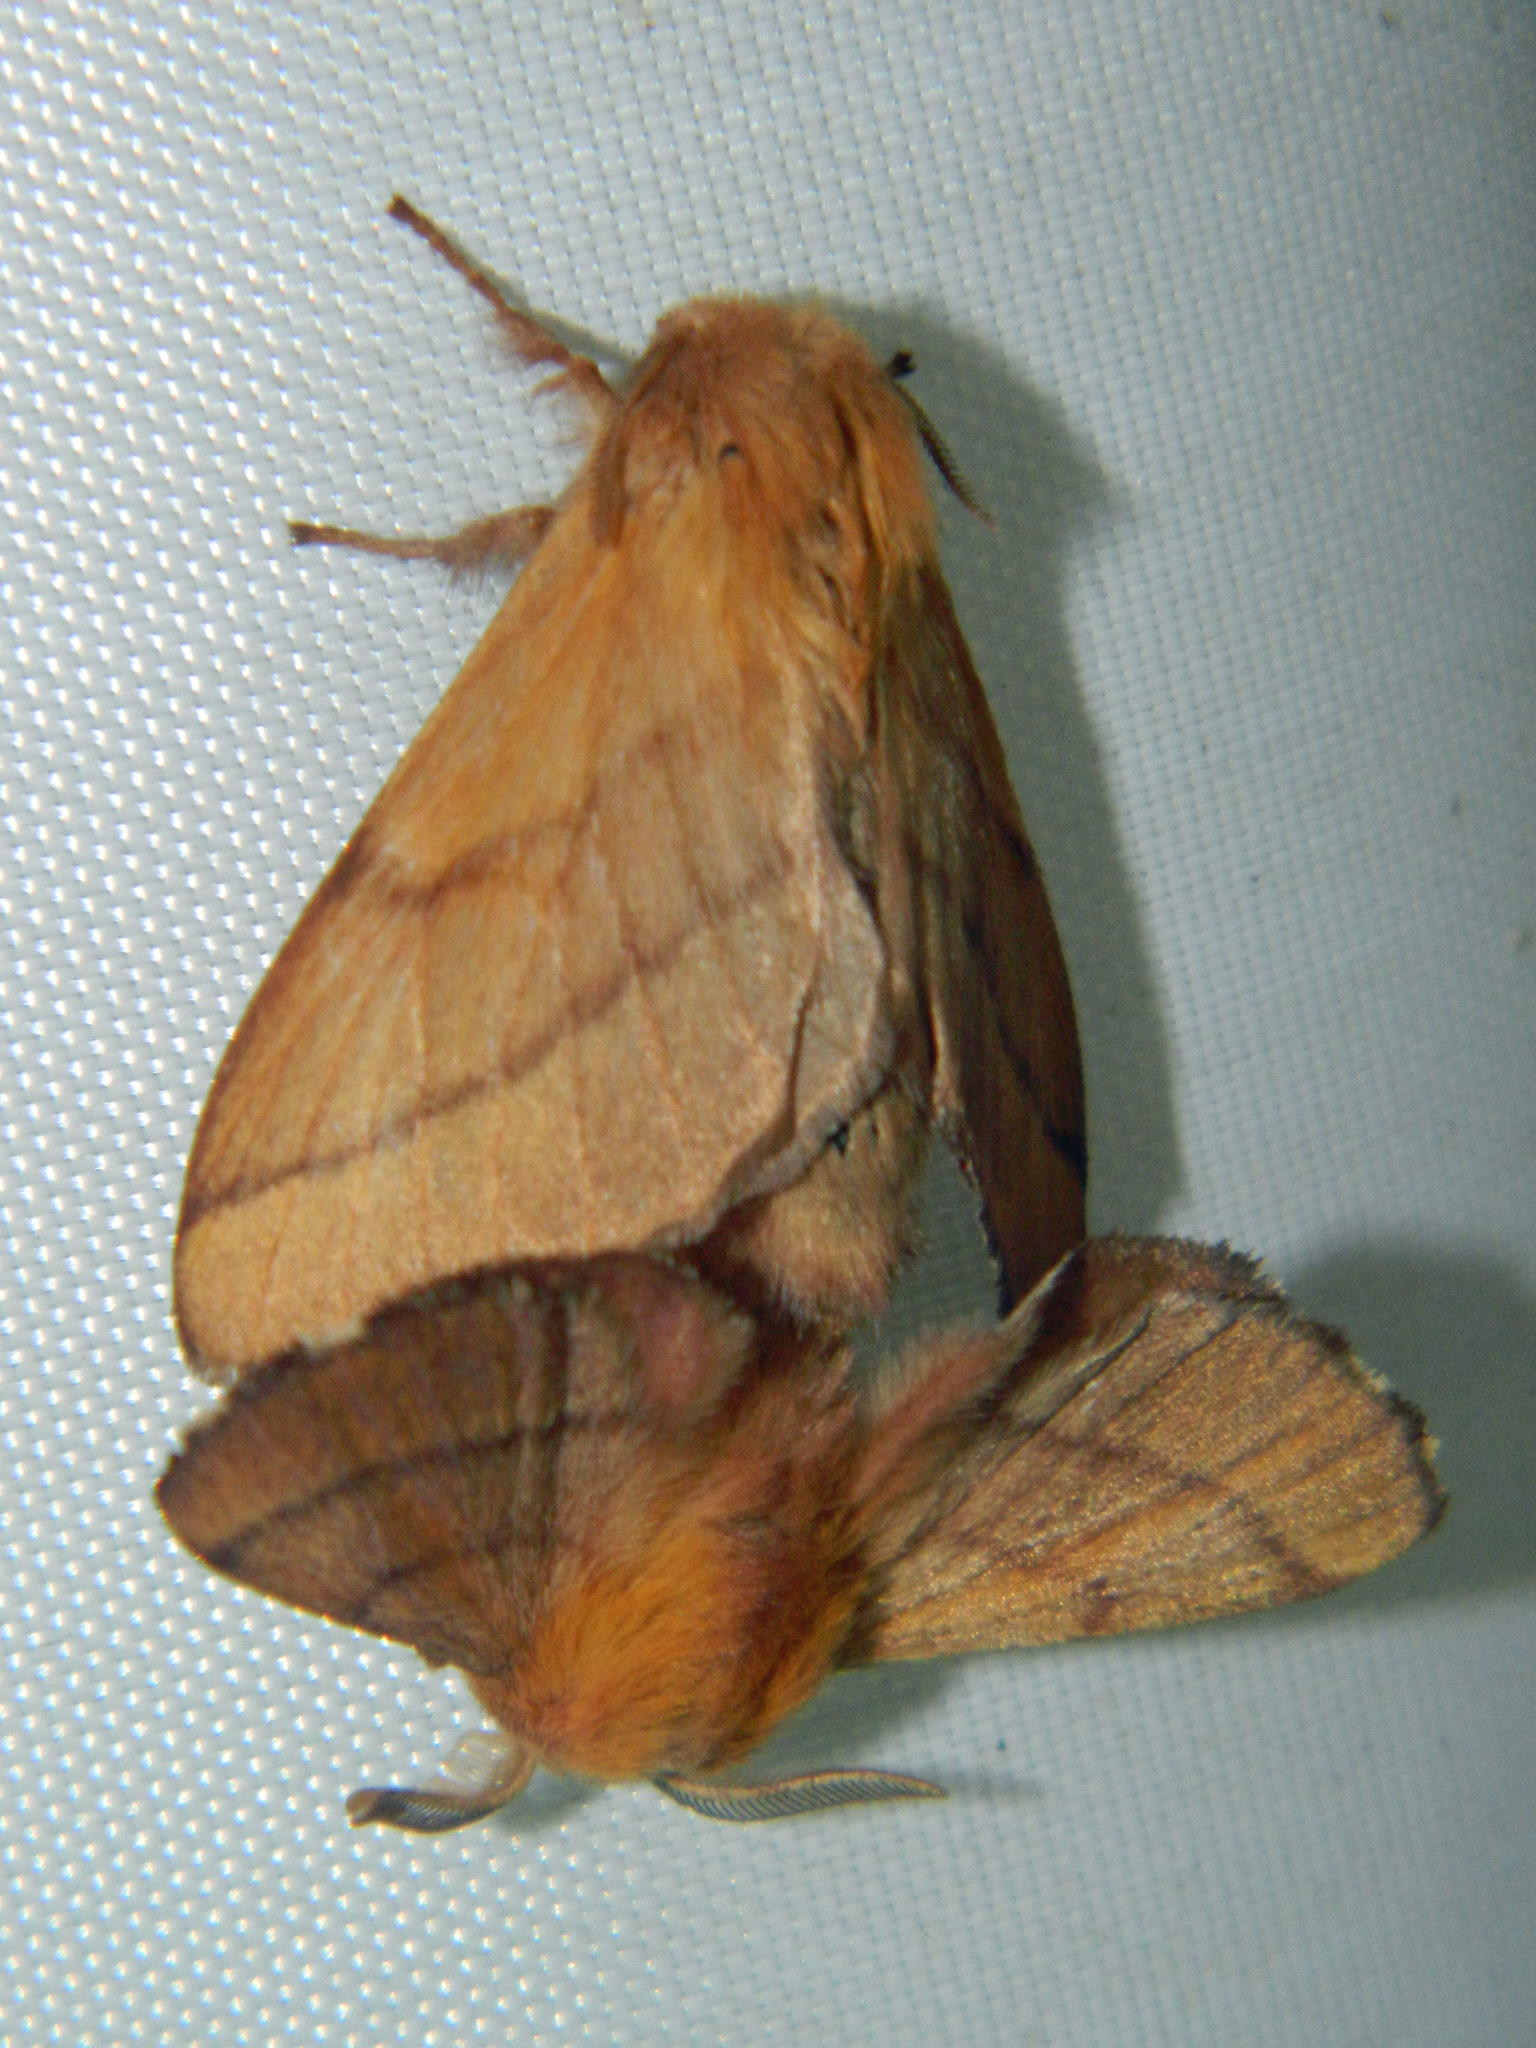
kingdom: Animalia
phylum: Arthropoda
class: Insecta
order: Lepidoptera
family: Lasiocampidae
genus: Malacosoma
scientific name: Malacosoma disstria
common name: Forest tent caterpillar
